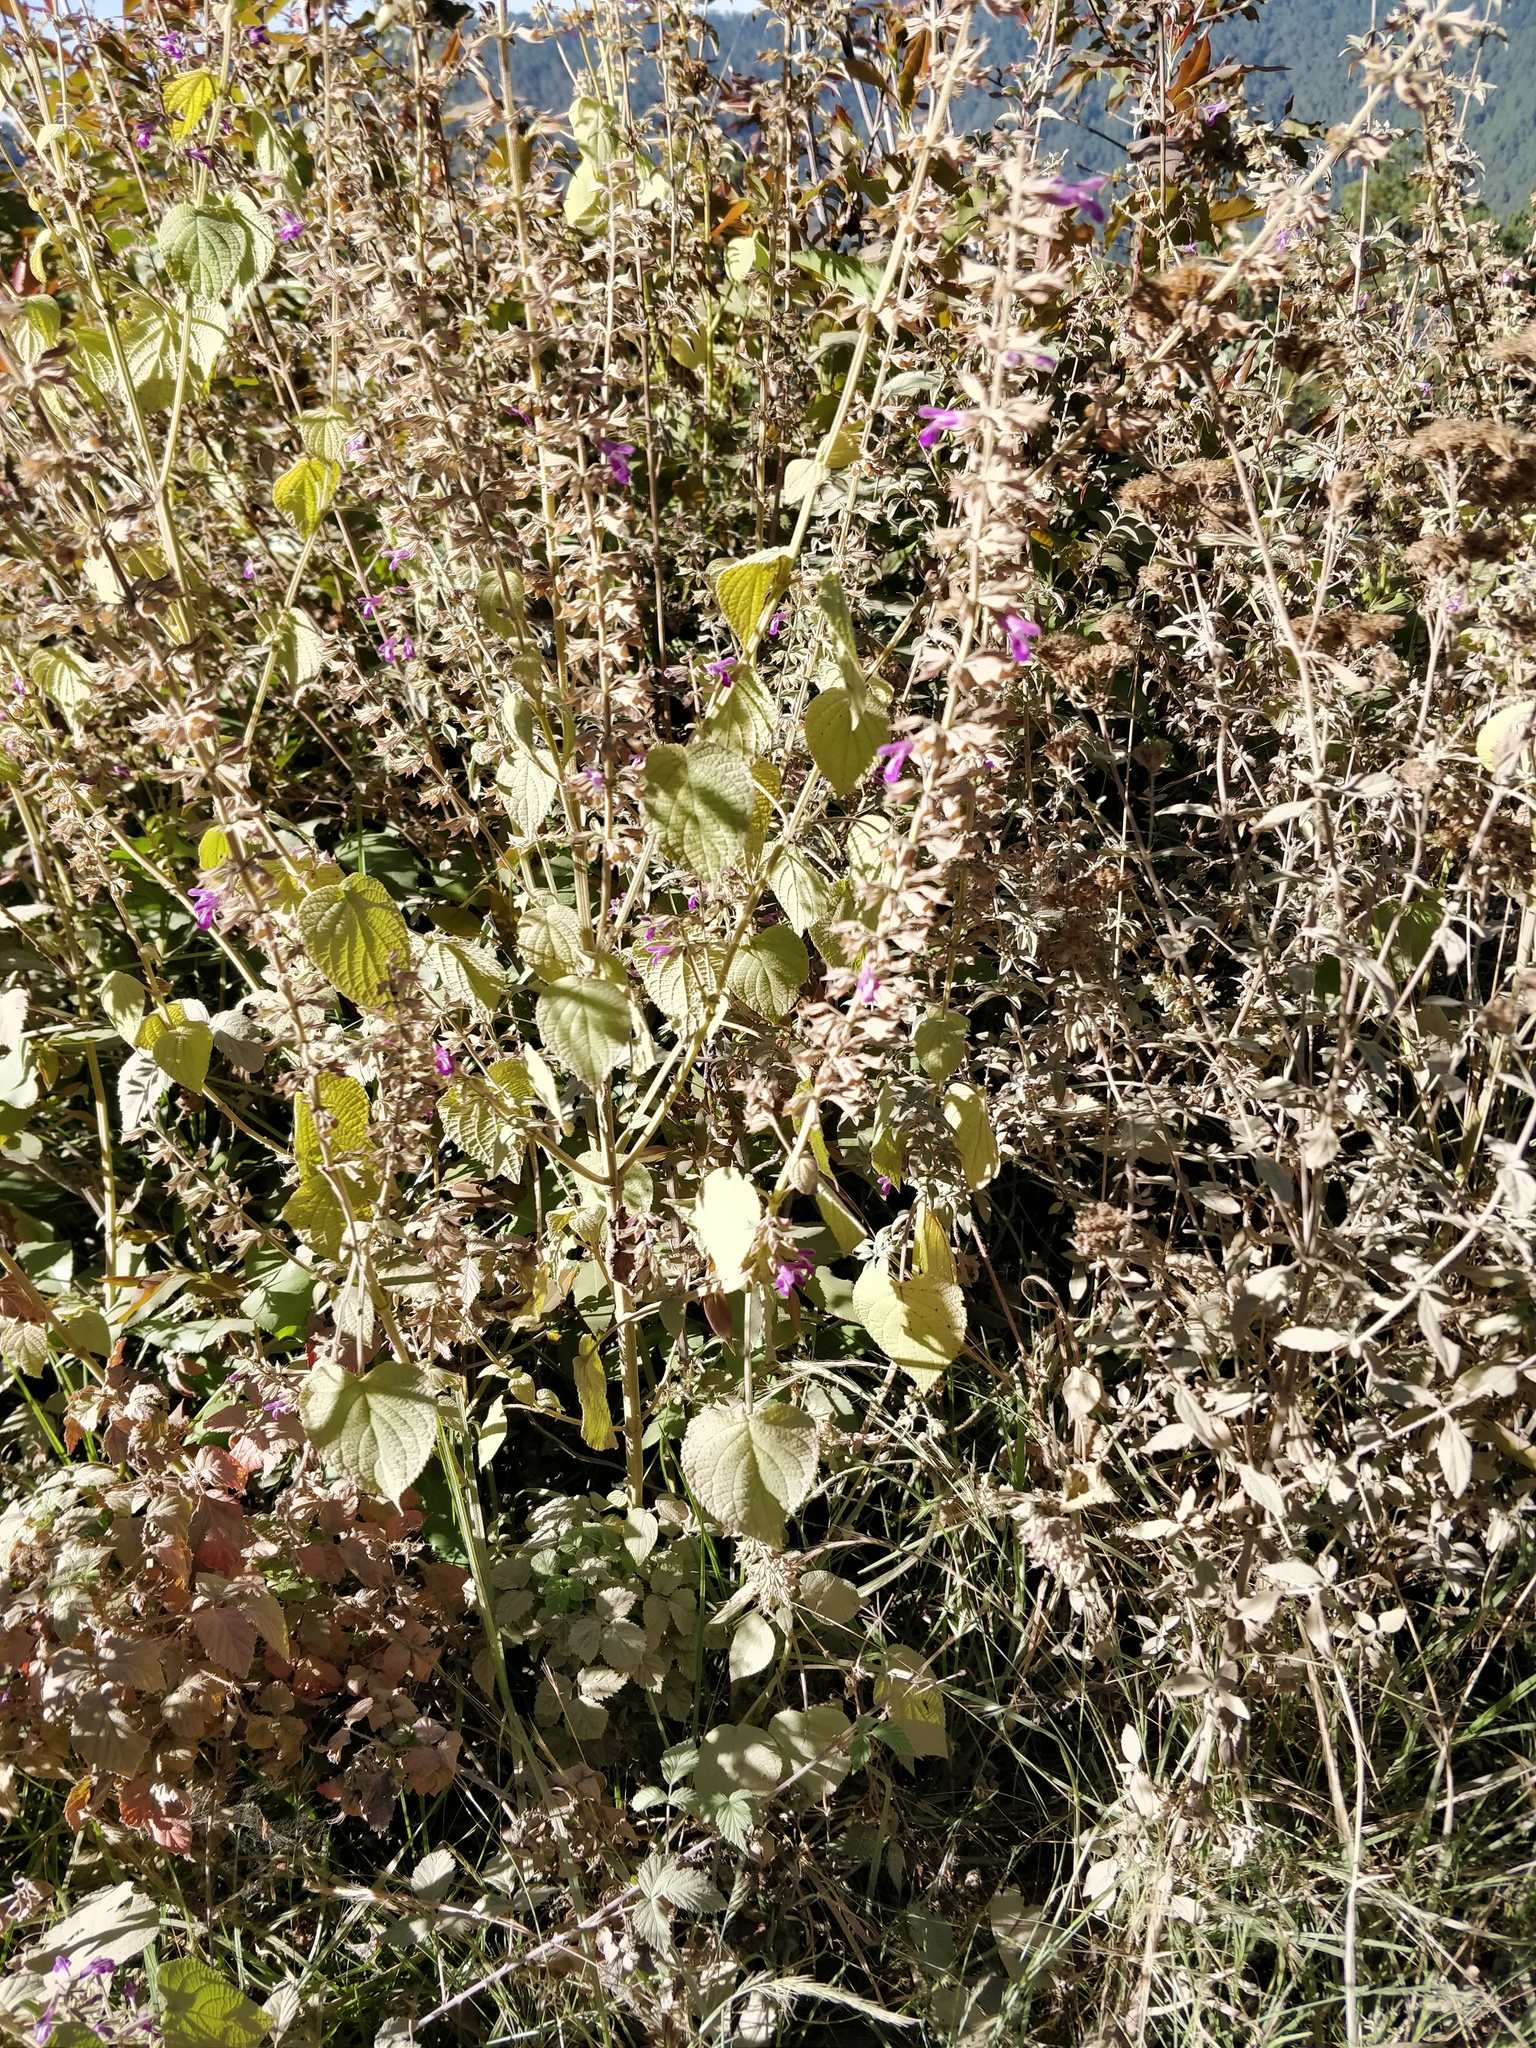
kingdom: Plantae
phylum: Tracheophyta
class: Magnoliopsida
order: Lamiales
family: Lamiaceae
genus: Salvia
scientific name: Salvia carnea
